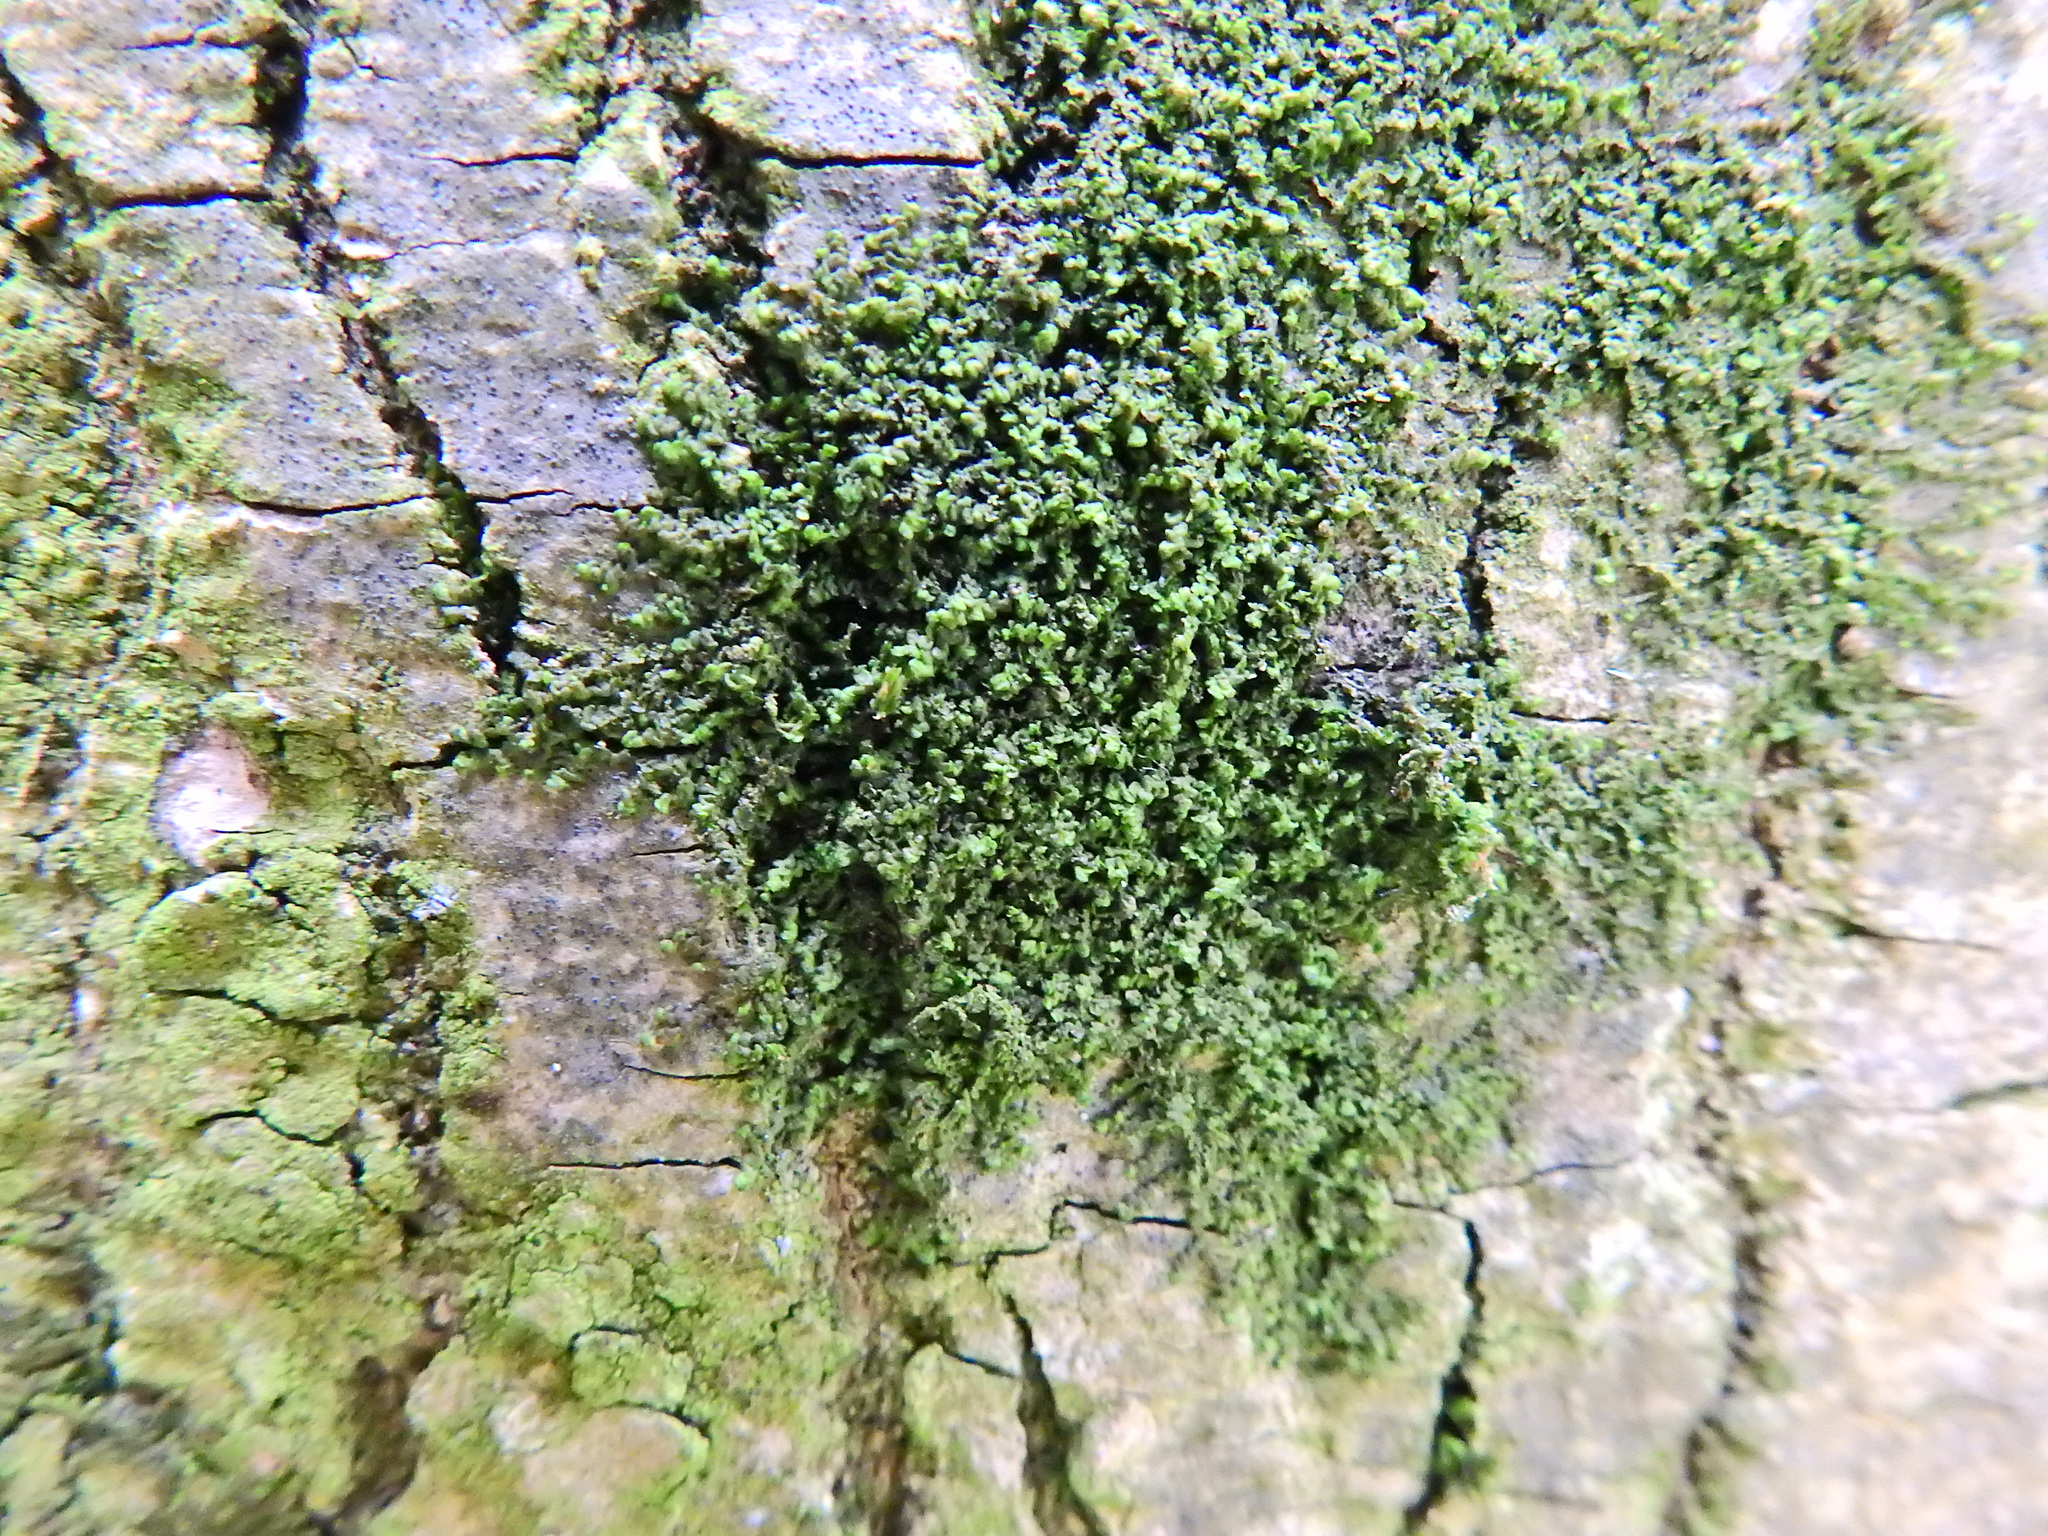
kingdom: Plantae
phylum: Marchantiophyta
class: Jungermanniopsida
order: Porellales
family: Frullaniaceae
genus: Frullania
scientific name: Frullania dilatata
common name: Dilated scalewort
